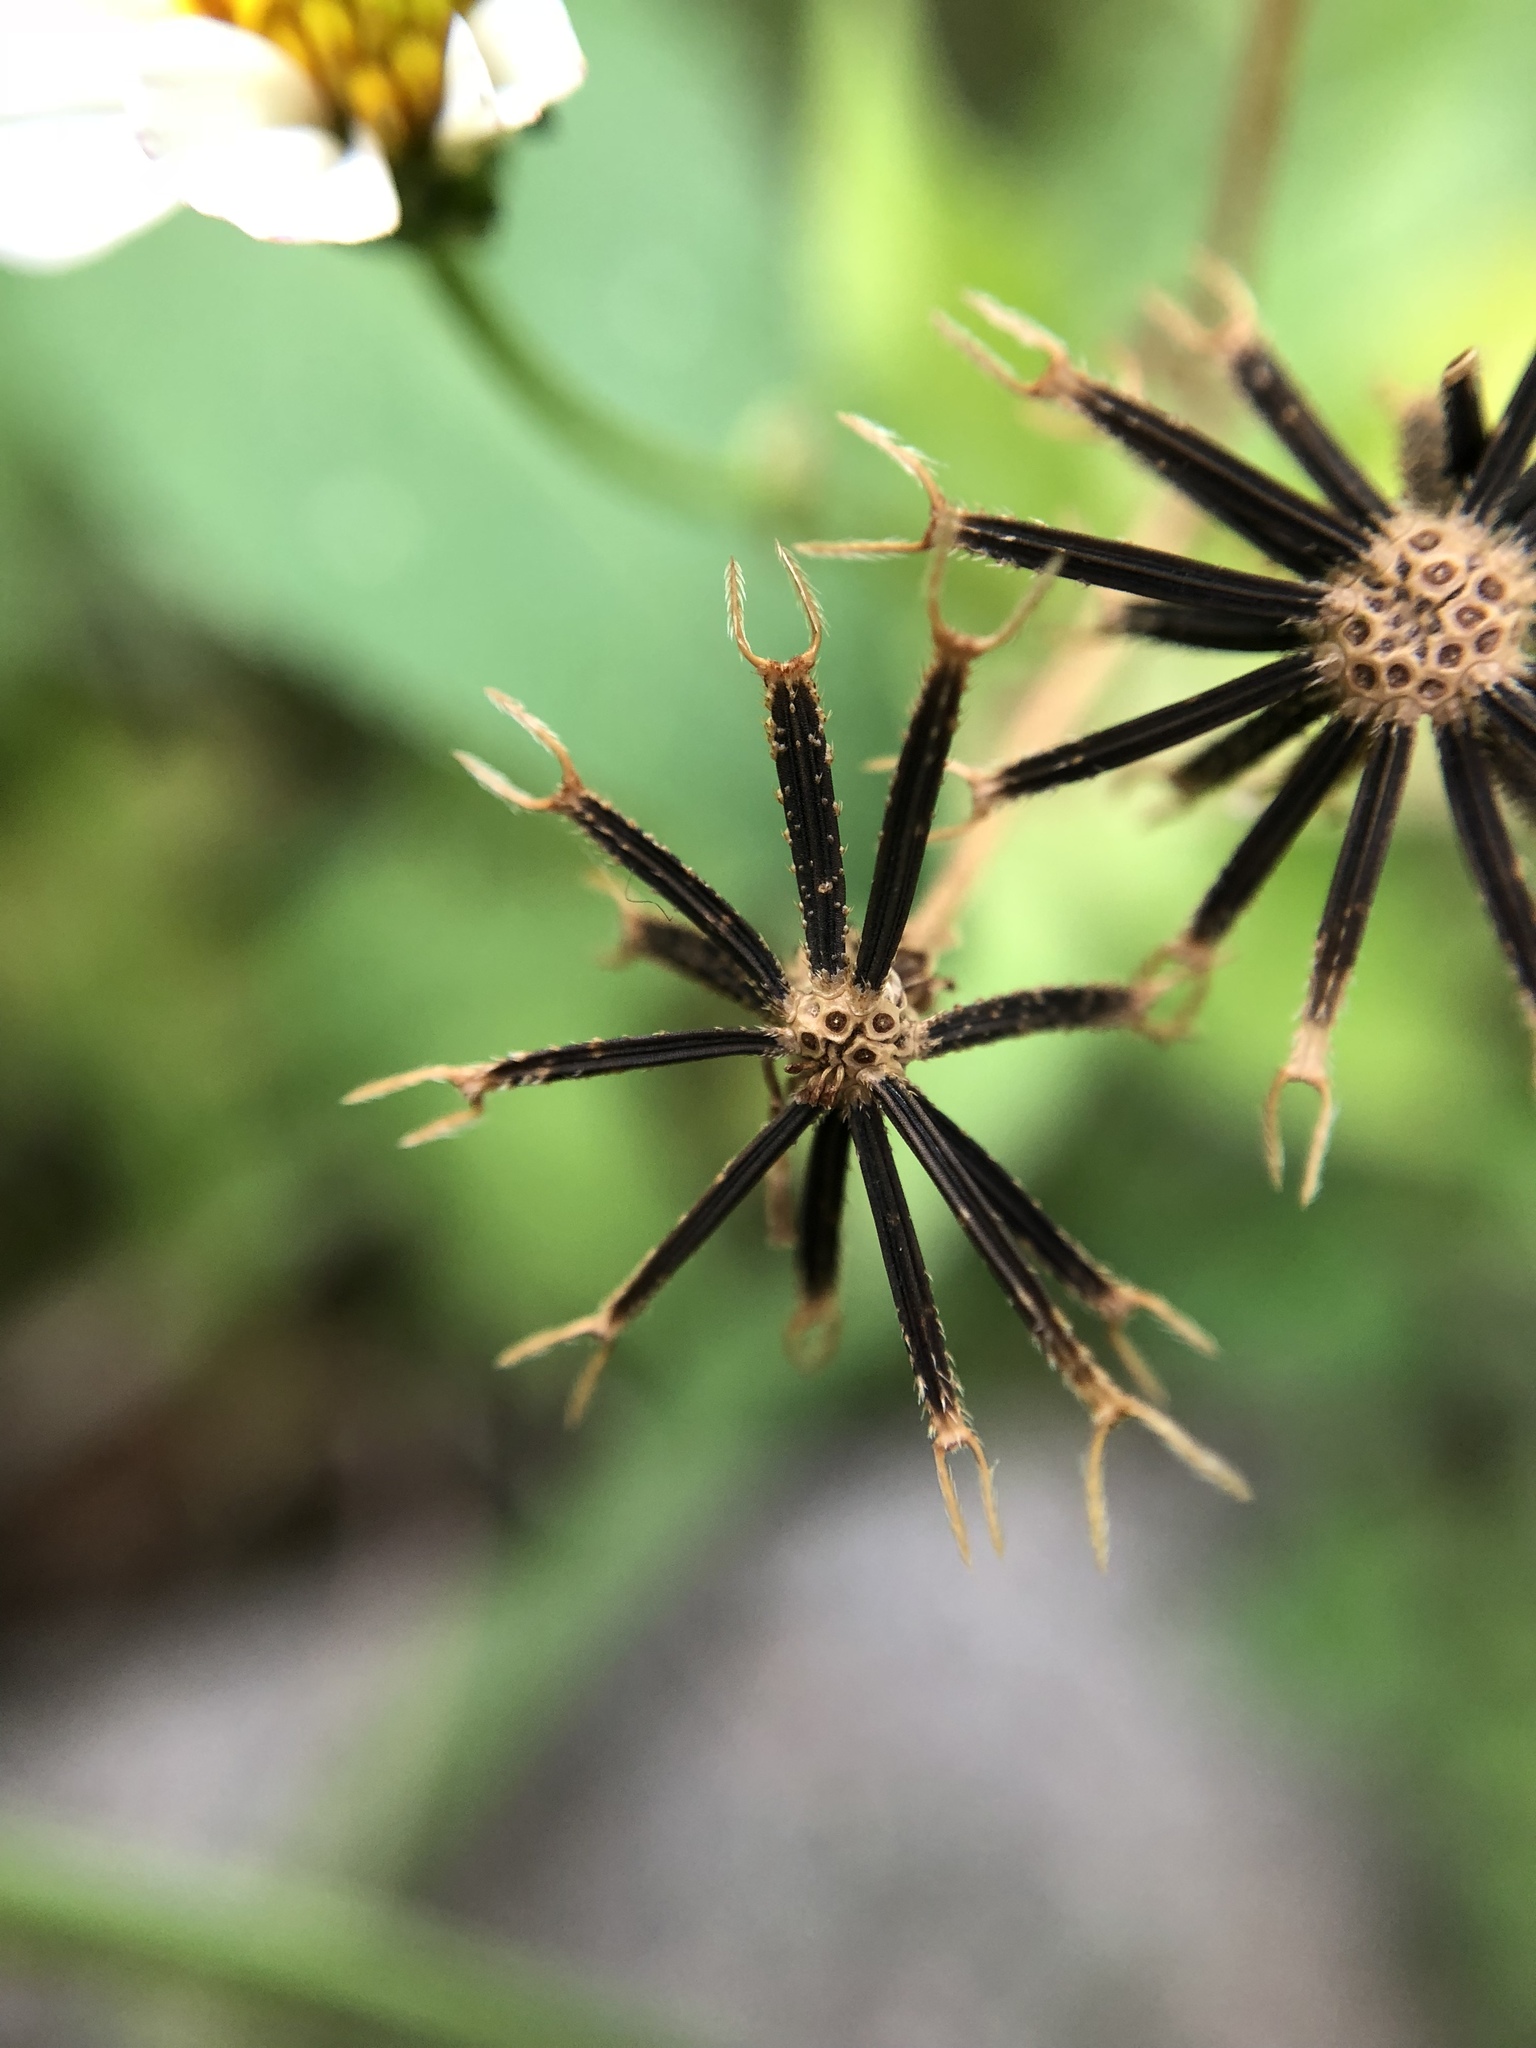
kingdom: Plantae
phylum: Tracheophyta
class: Magnoliopsida
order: Asterales
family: Asteraceae
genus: Bidens
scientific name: Bidens alba
